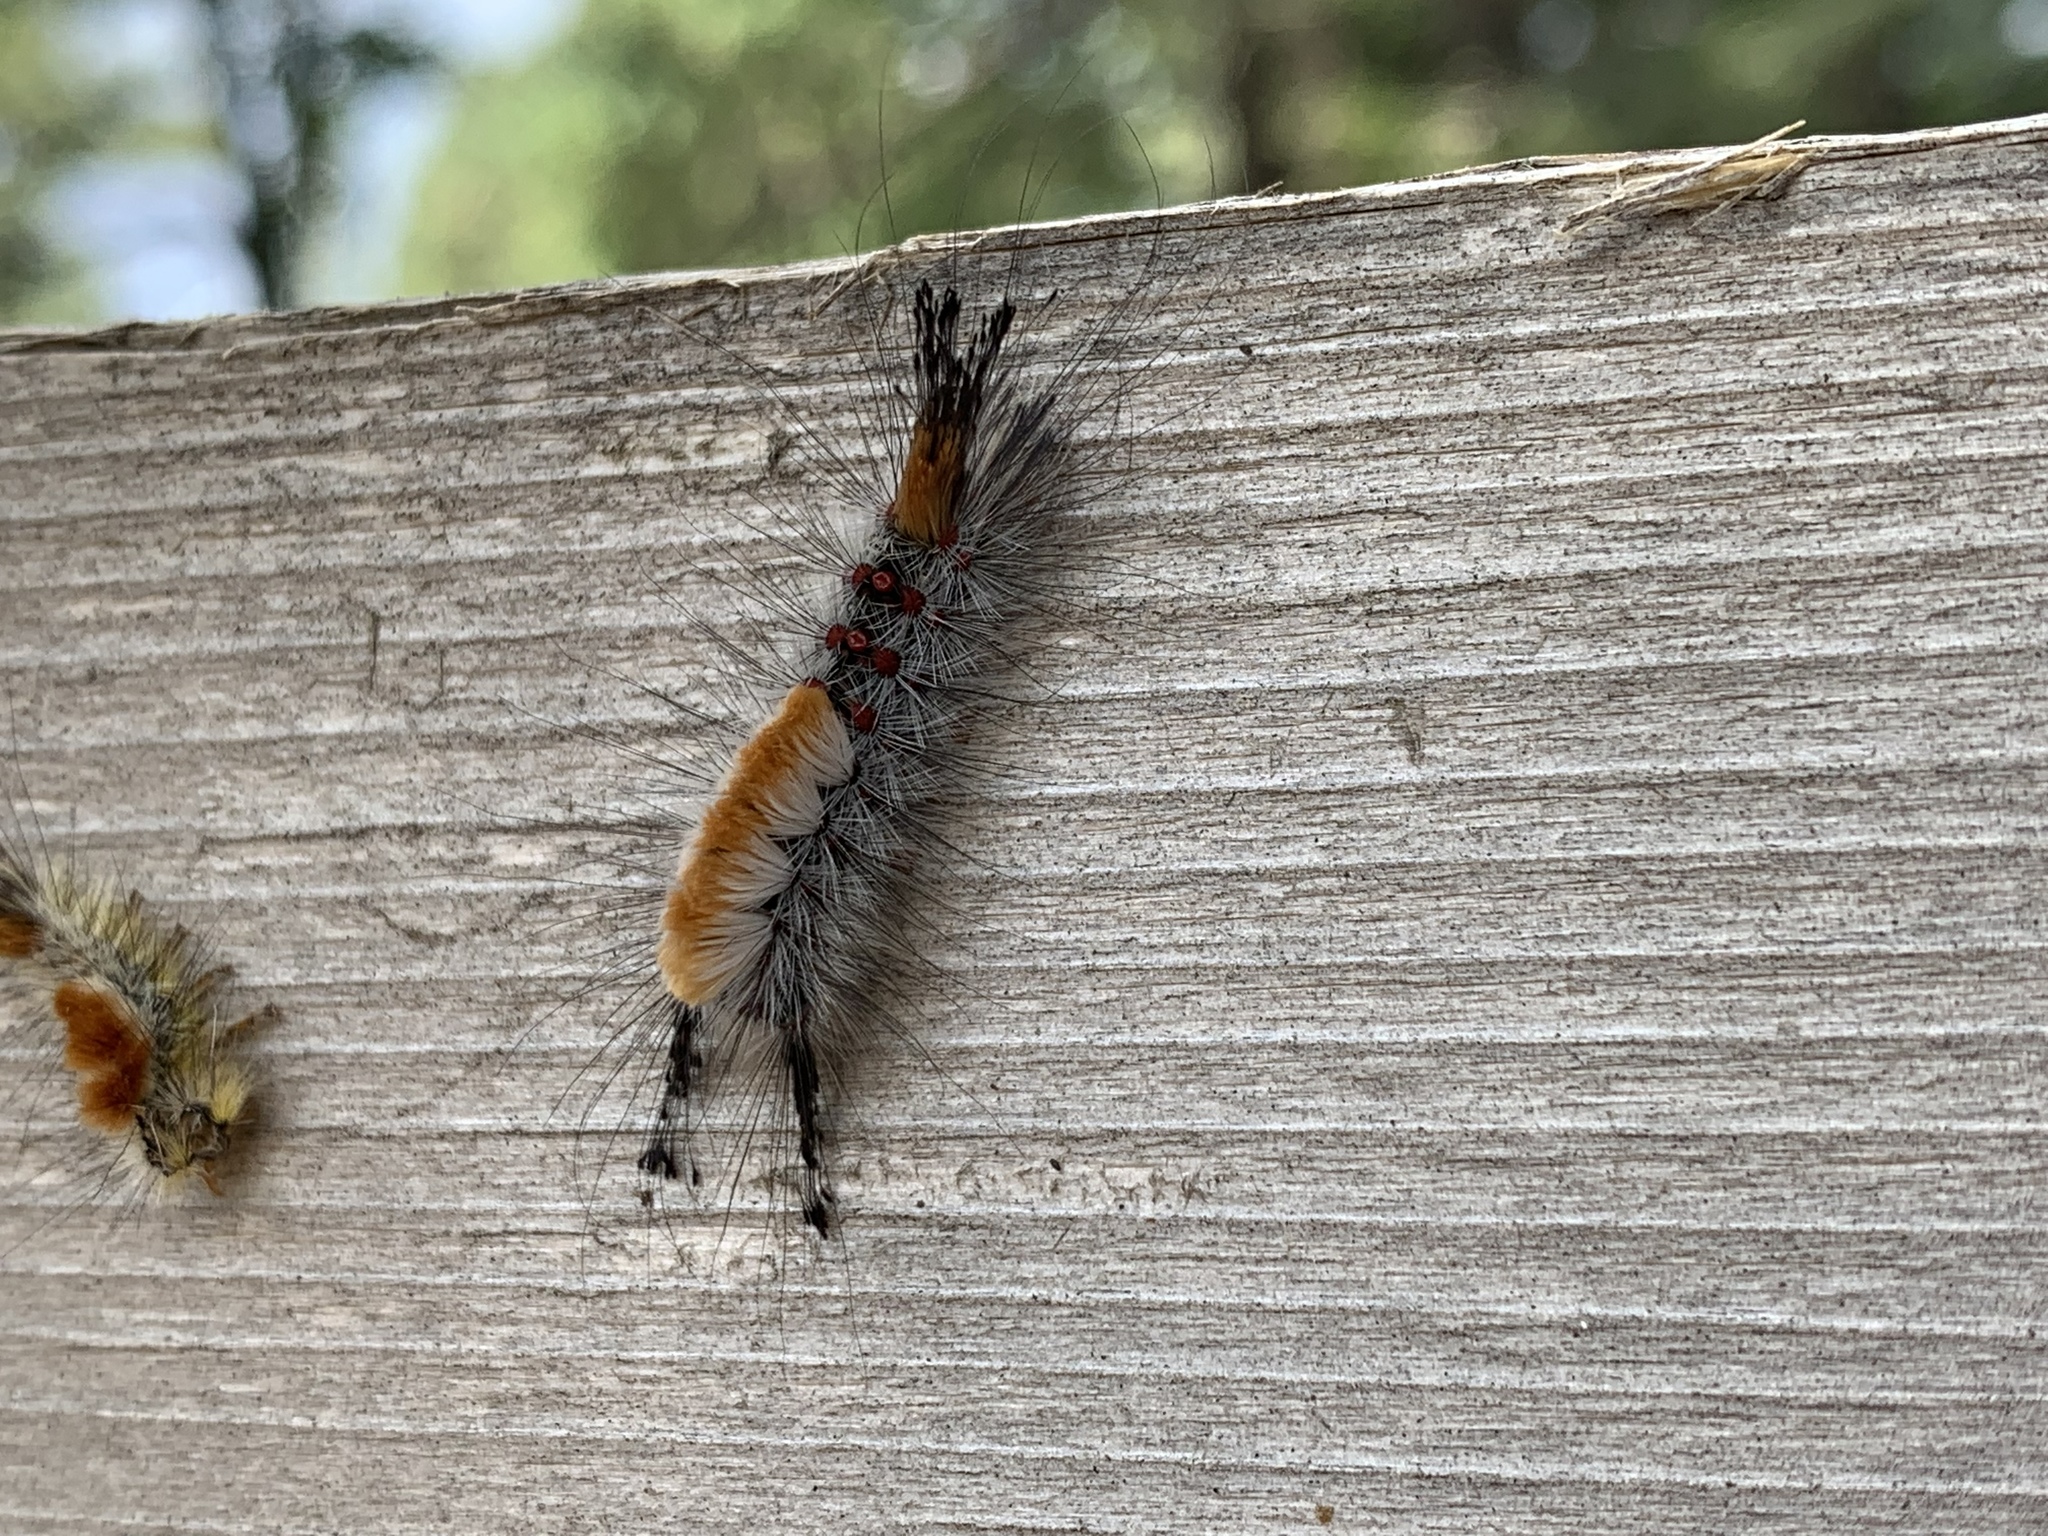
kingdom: Animalia
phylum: Arthropoda
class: Insecta
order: Lepidoptera
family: Erebidae
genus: Orgyia
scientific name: Orgyia pseudotsugata
